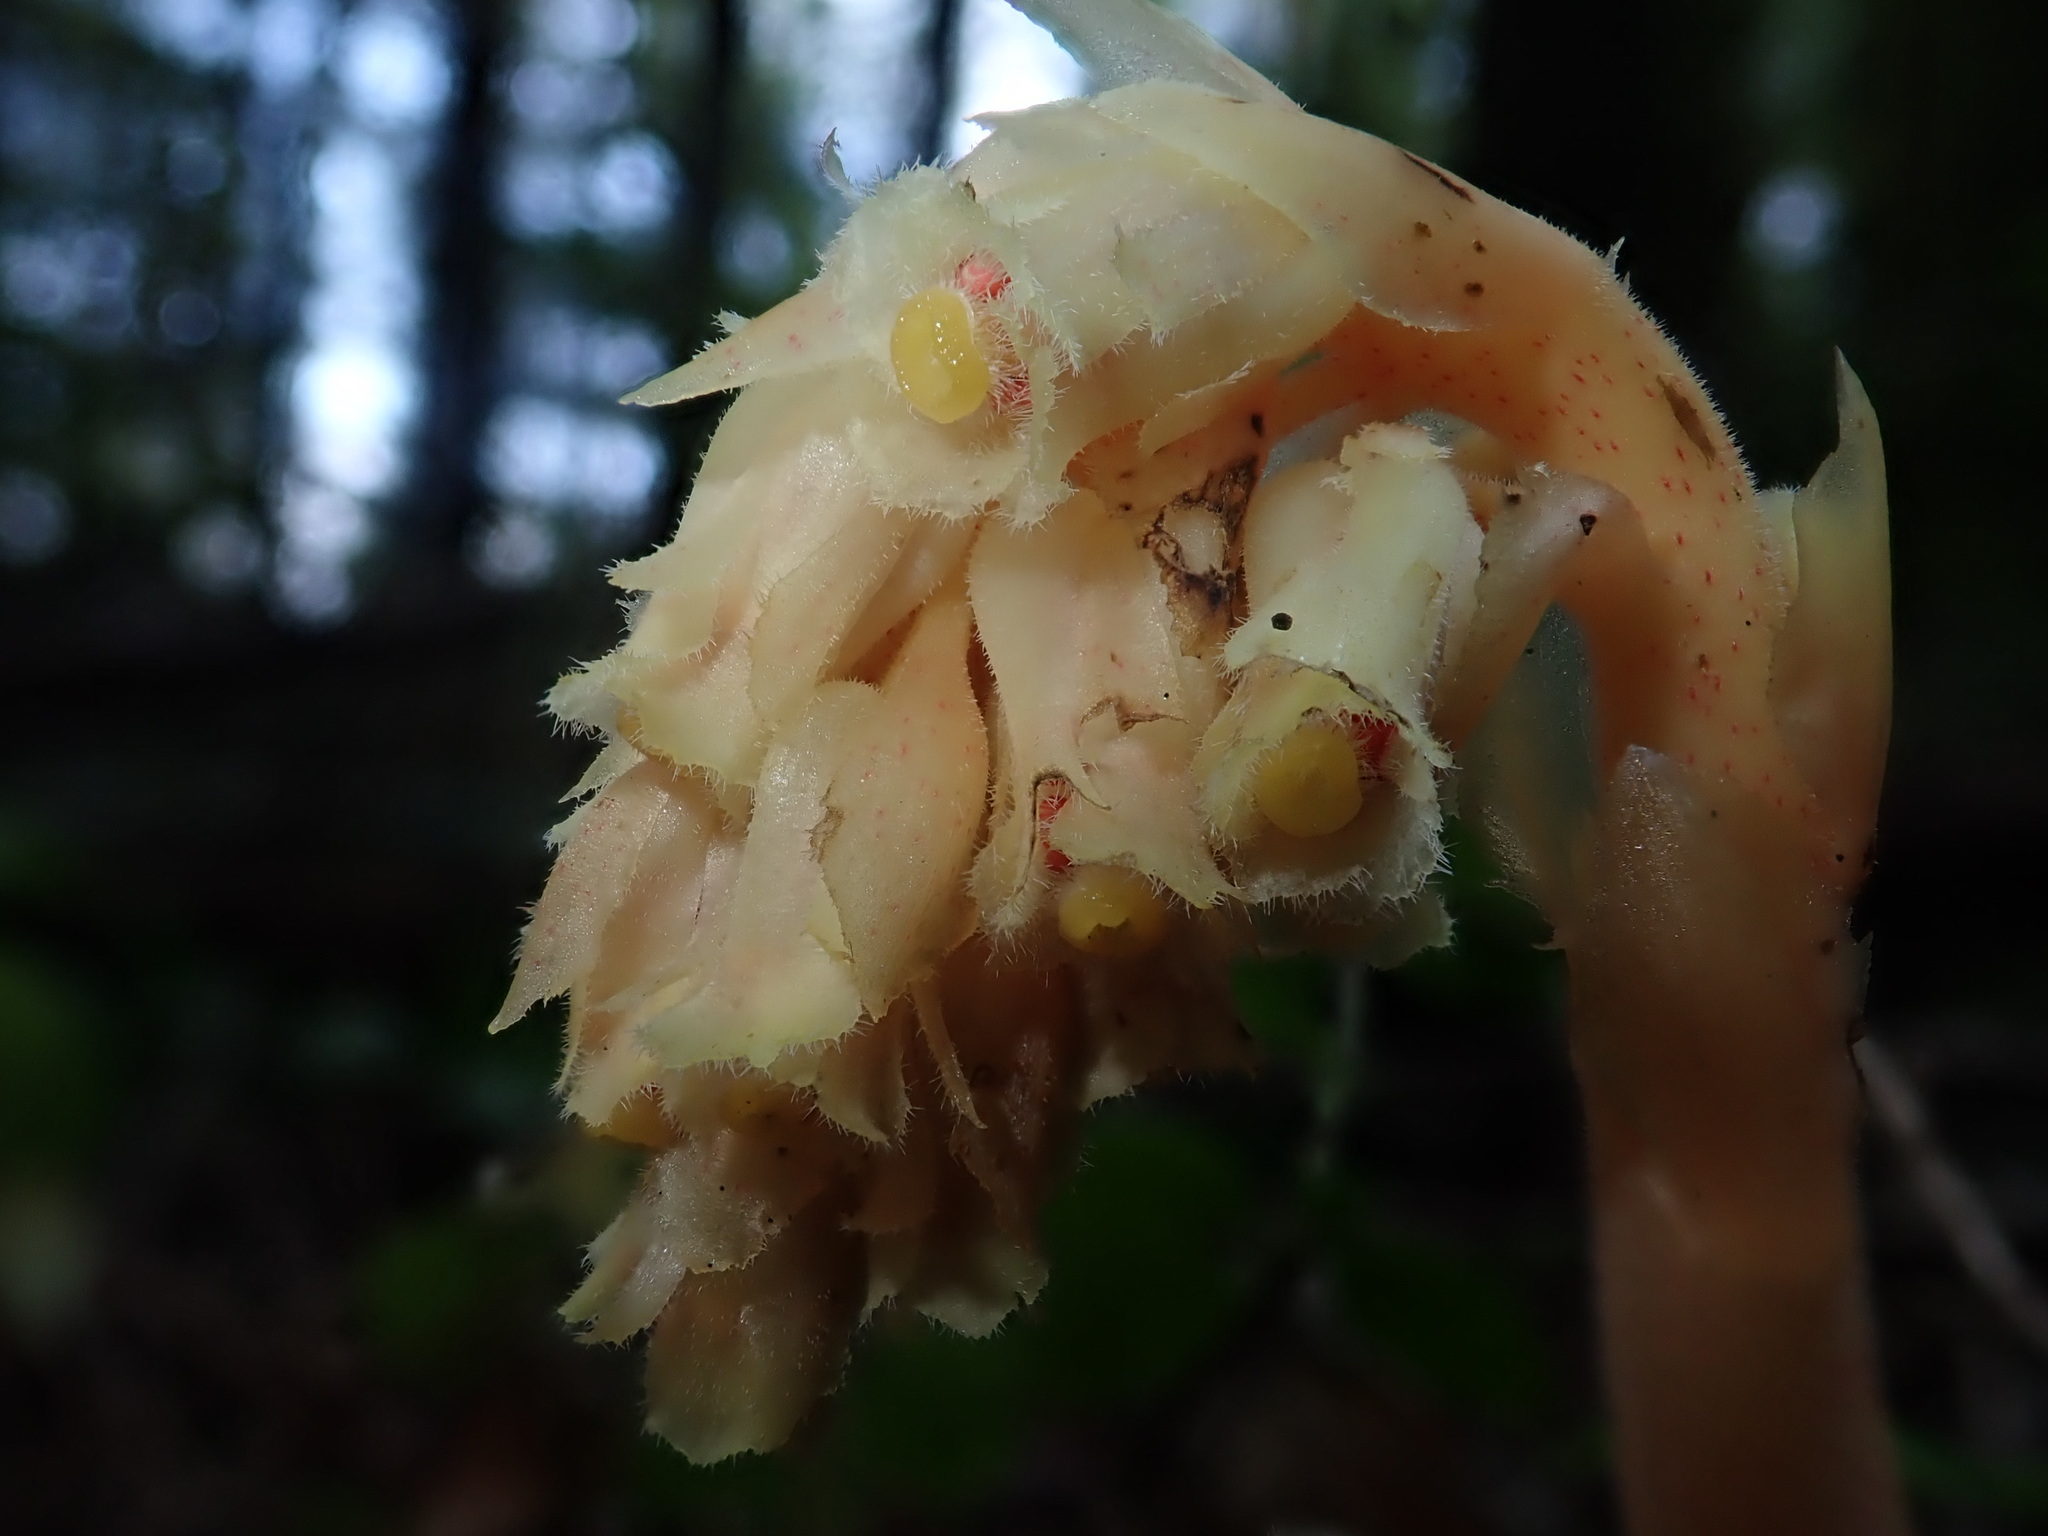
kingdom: Plantae
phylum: Tracheophyta
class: Magnoliopsida
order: Ericales
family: Ericaceae
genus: Hypopitys
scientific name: Hypopitys monotropa
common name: Yellow bird's-nest
